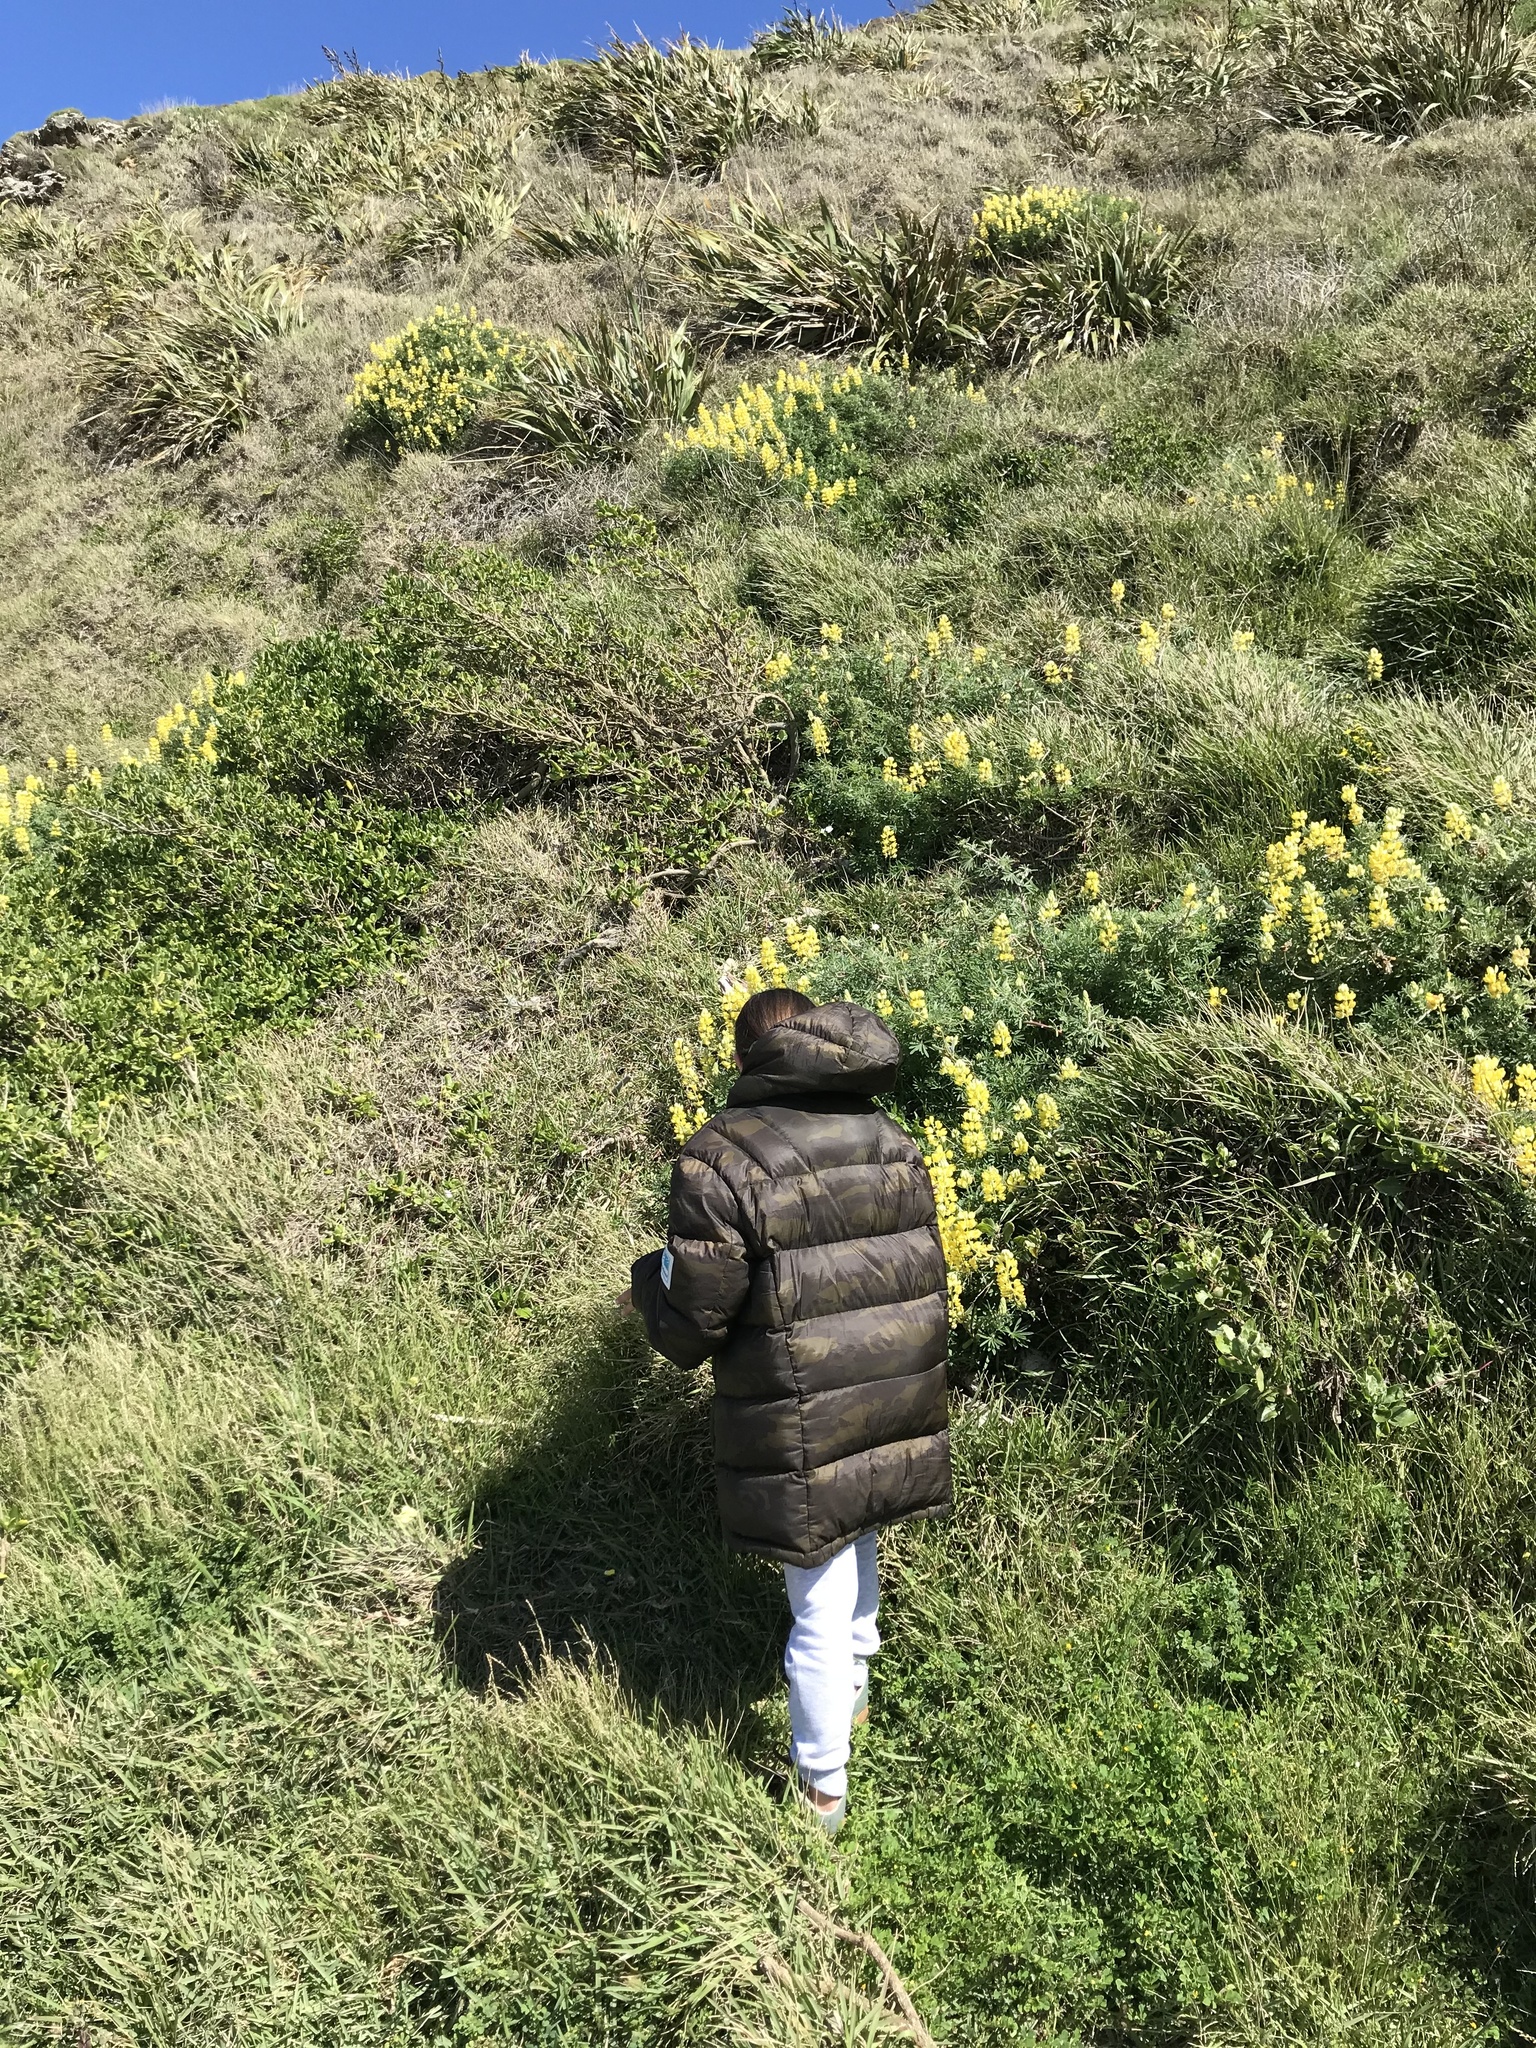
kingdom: Plantae
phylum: Tracheophyta
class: Magnoliopsida
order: Fabales
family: Fabaceae
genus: Lupinus
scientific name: Lupinus arboreus
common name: Yellow bush lupine
